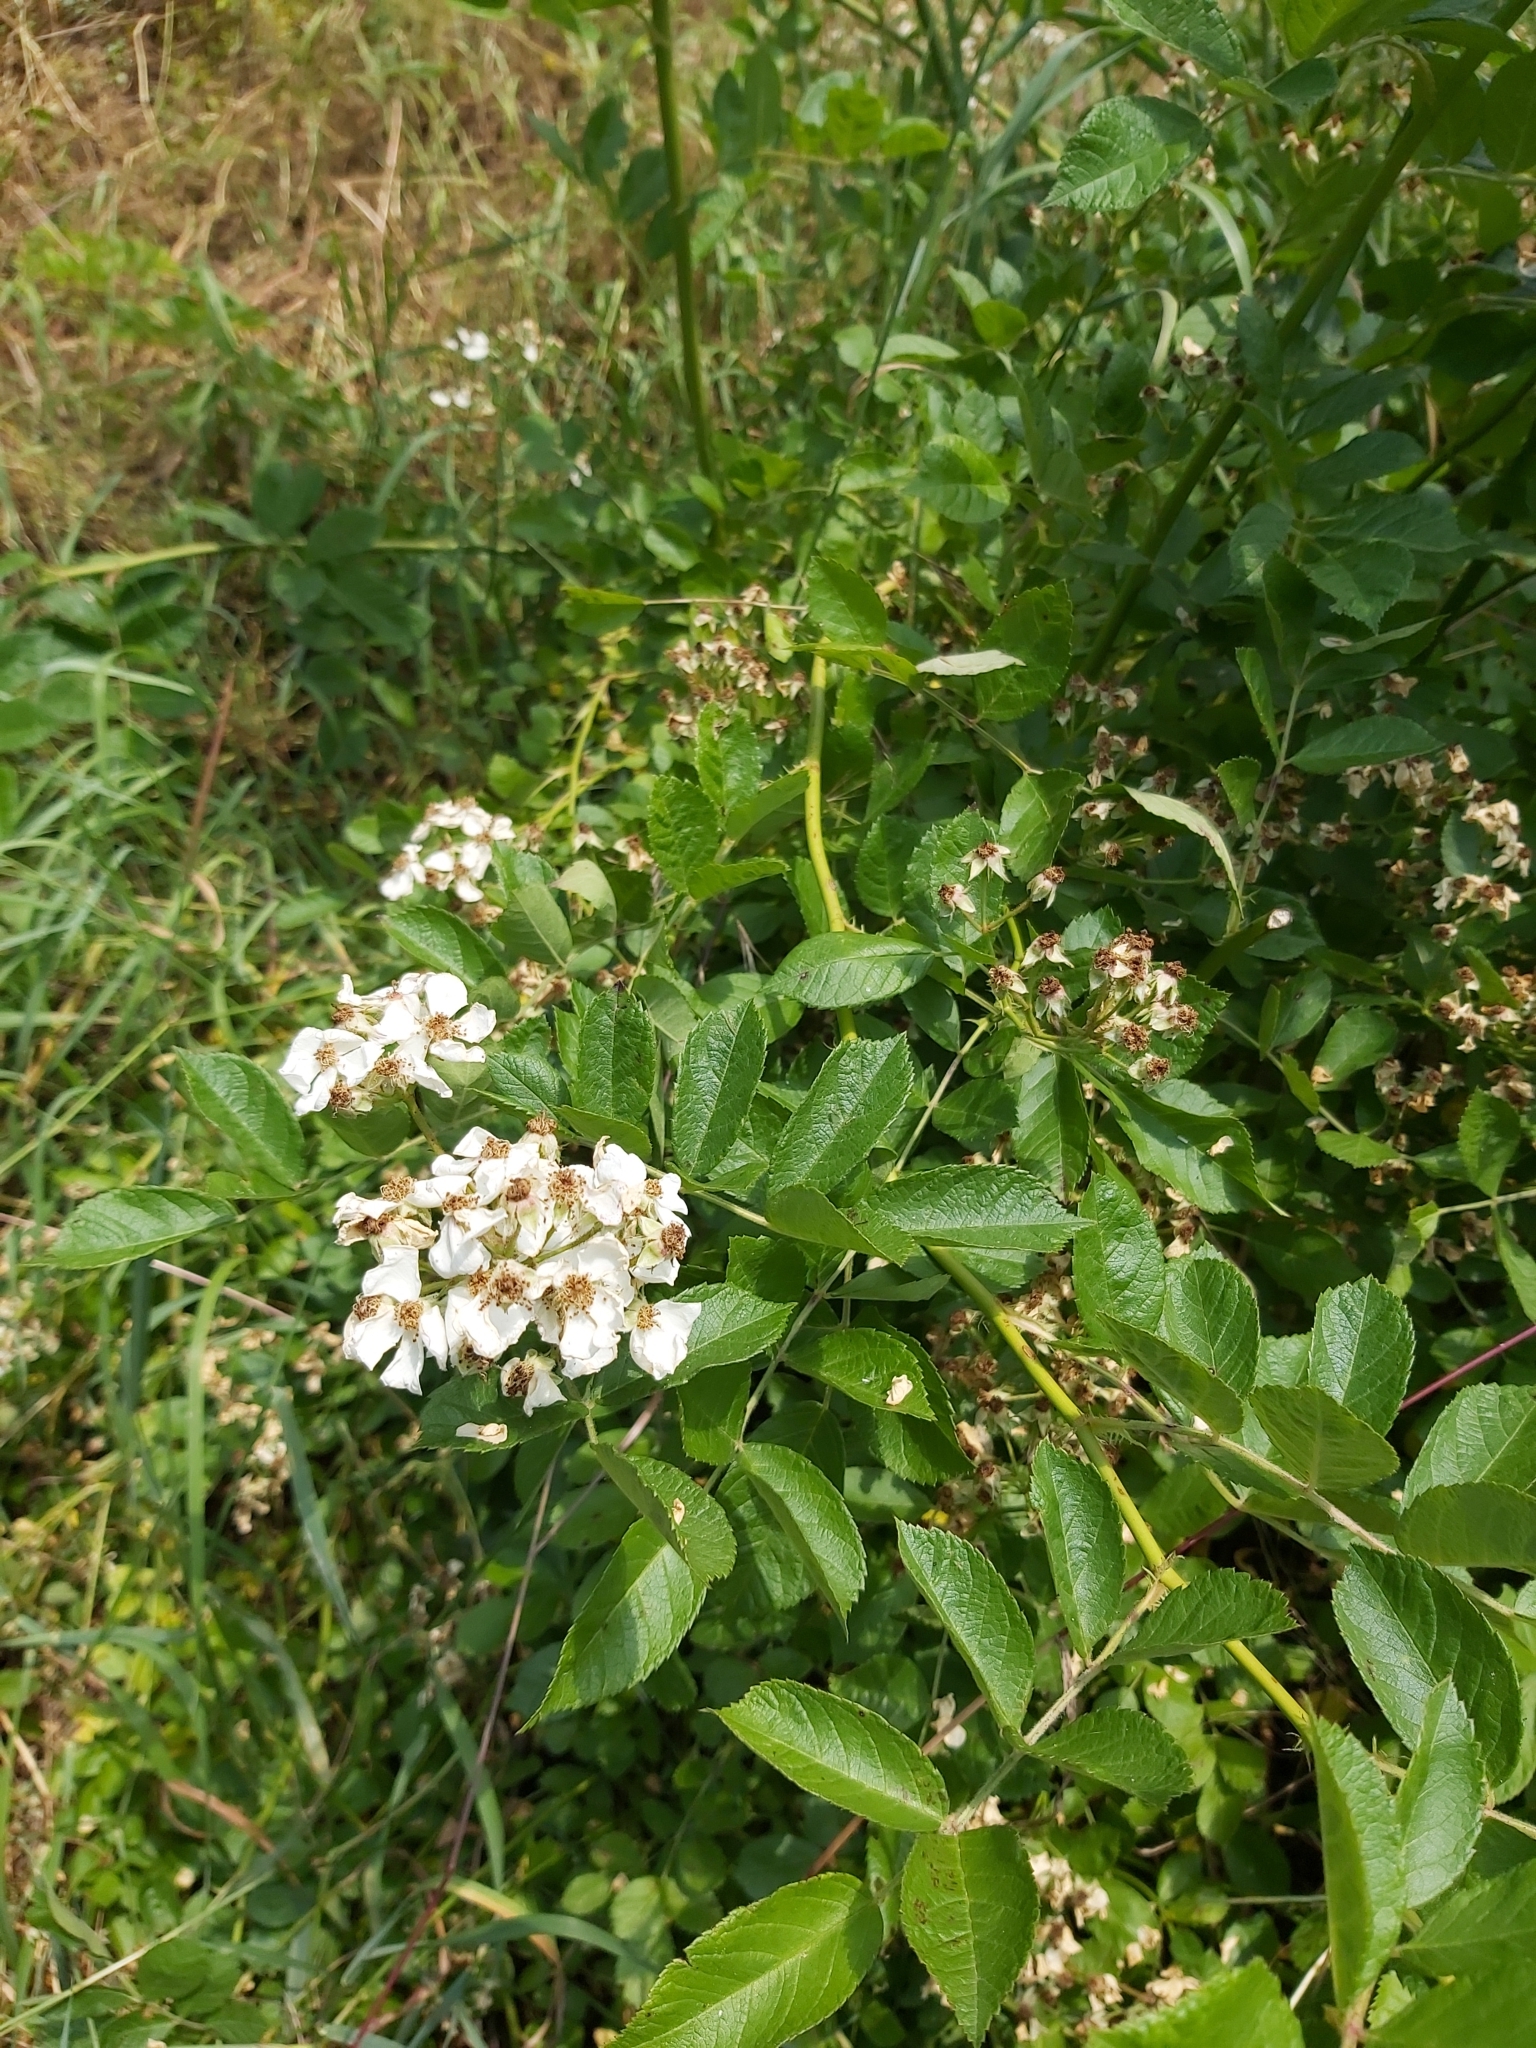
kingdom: Plantae
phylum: Tracheophyta
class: Magnoliopsida
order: Rosales
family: Rosaceae
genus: Rosa
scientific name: Rosa multiflora
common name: Multiflora rose
